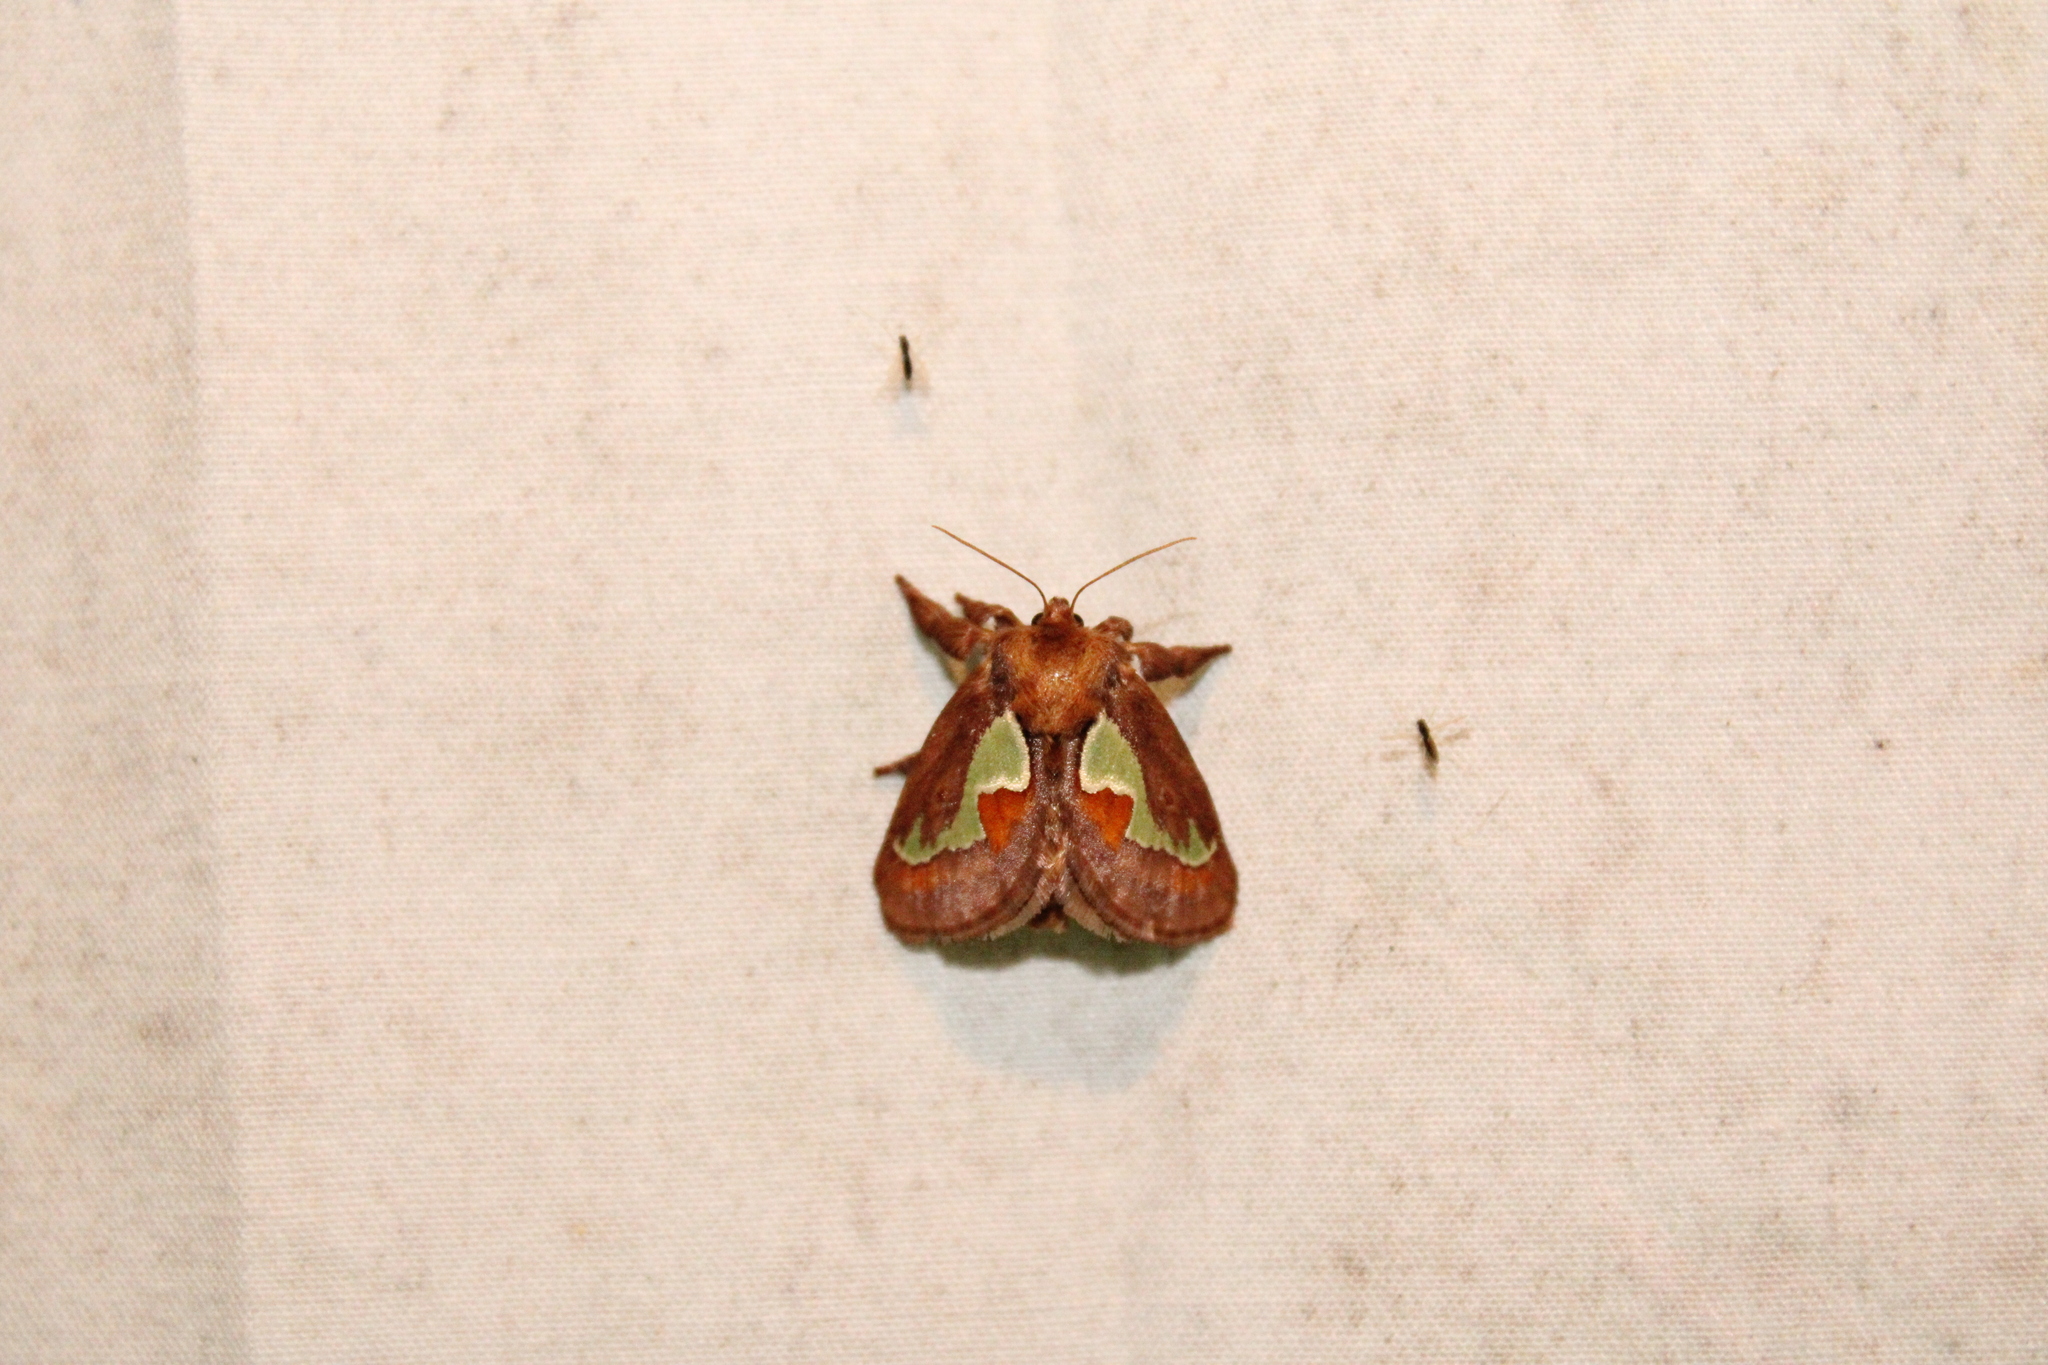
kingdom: Animalia
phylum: Arthropoda
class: Insecta
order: Lepidoptera
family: Limacodidae
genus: Euclea
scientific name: Euclea delphinii
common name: Spiny oak-slug moth
